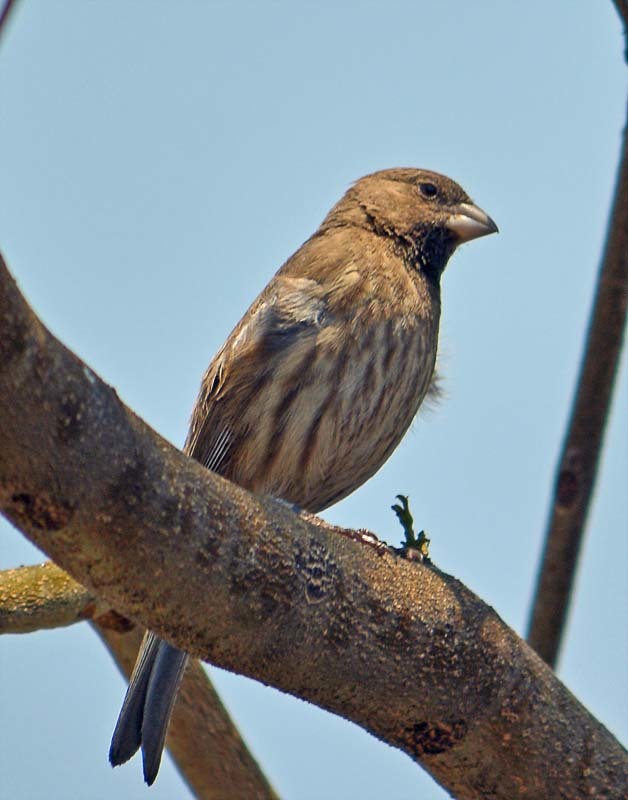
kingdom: Animalia
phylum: Chordata
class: Aves
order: Passeriformes
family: Fringillidae
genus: Haemorhous
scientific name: Haemorhous mexicanus
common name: House finch
